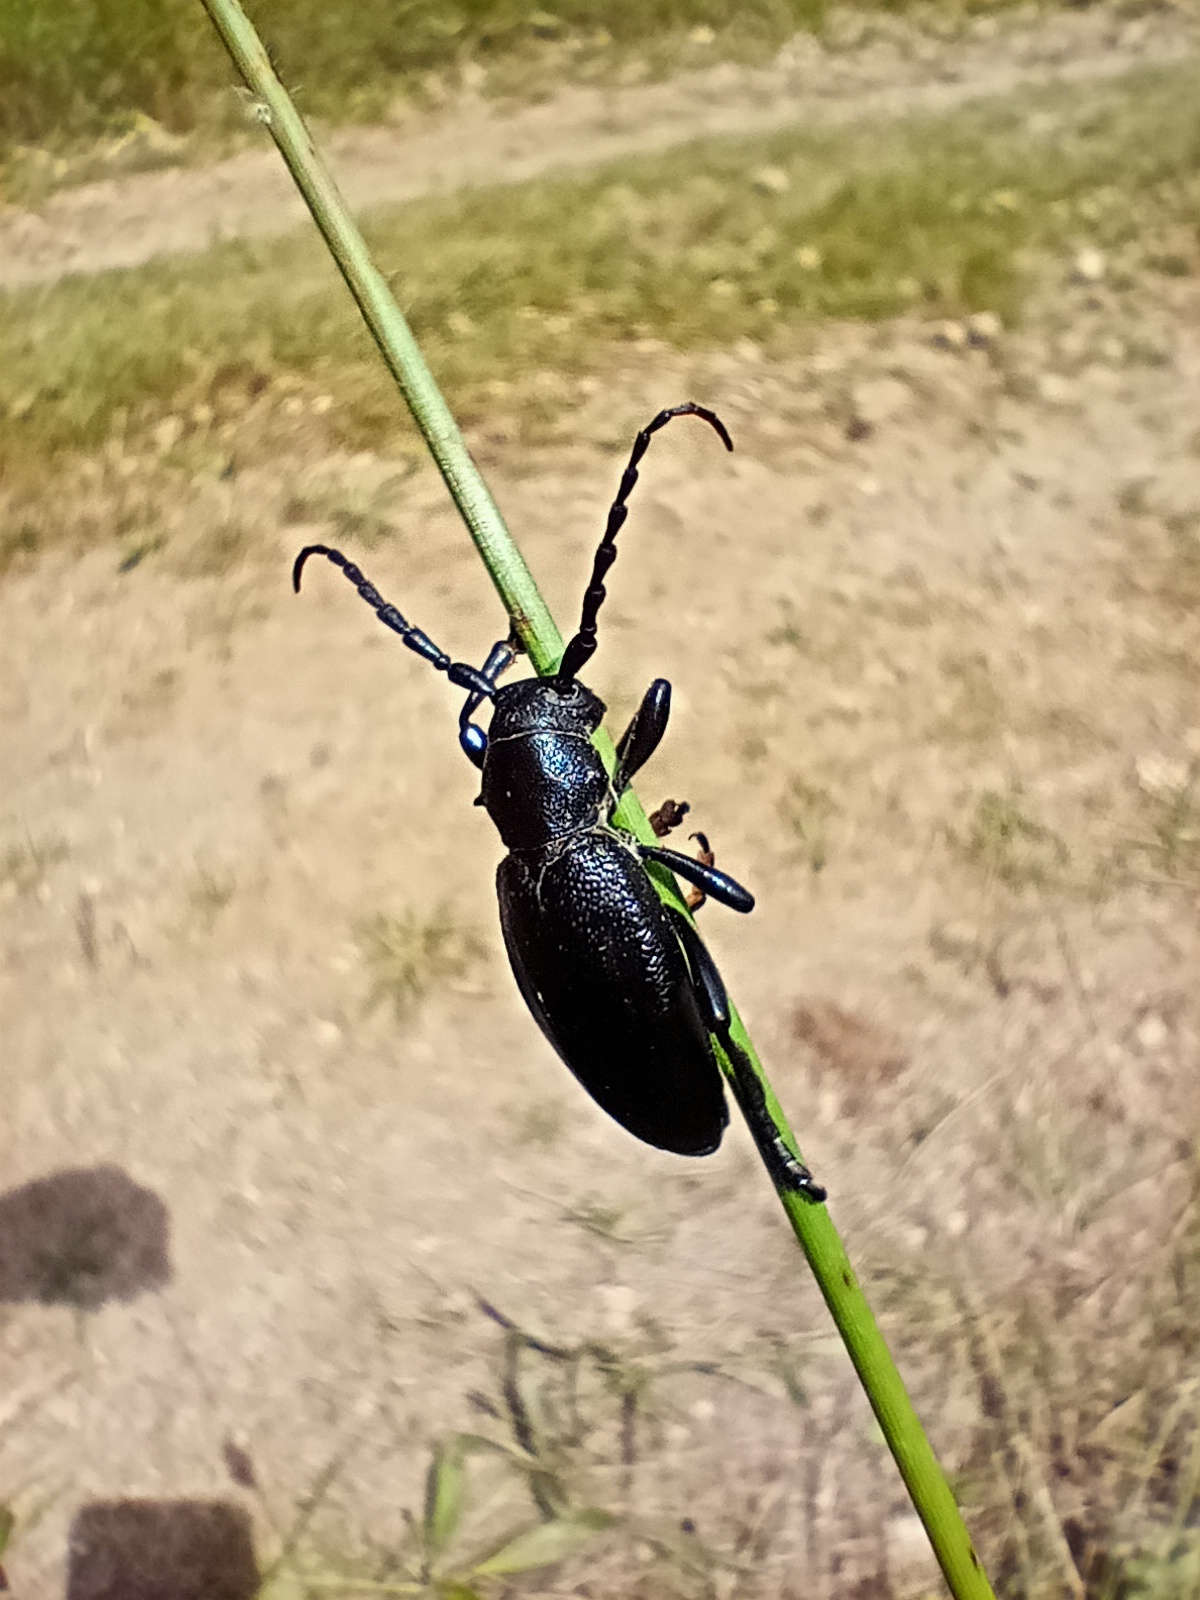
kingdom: Animalia
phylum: Arthropoda
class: Insecta
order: Coleoptera
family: Cerambycidae
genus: Dorcadion
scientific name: Dorcadion aethiops
